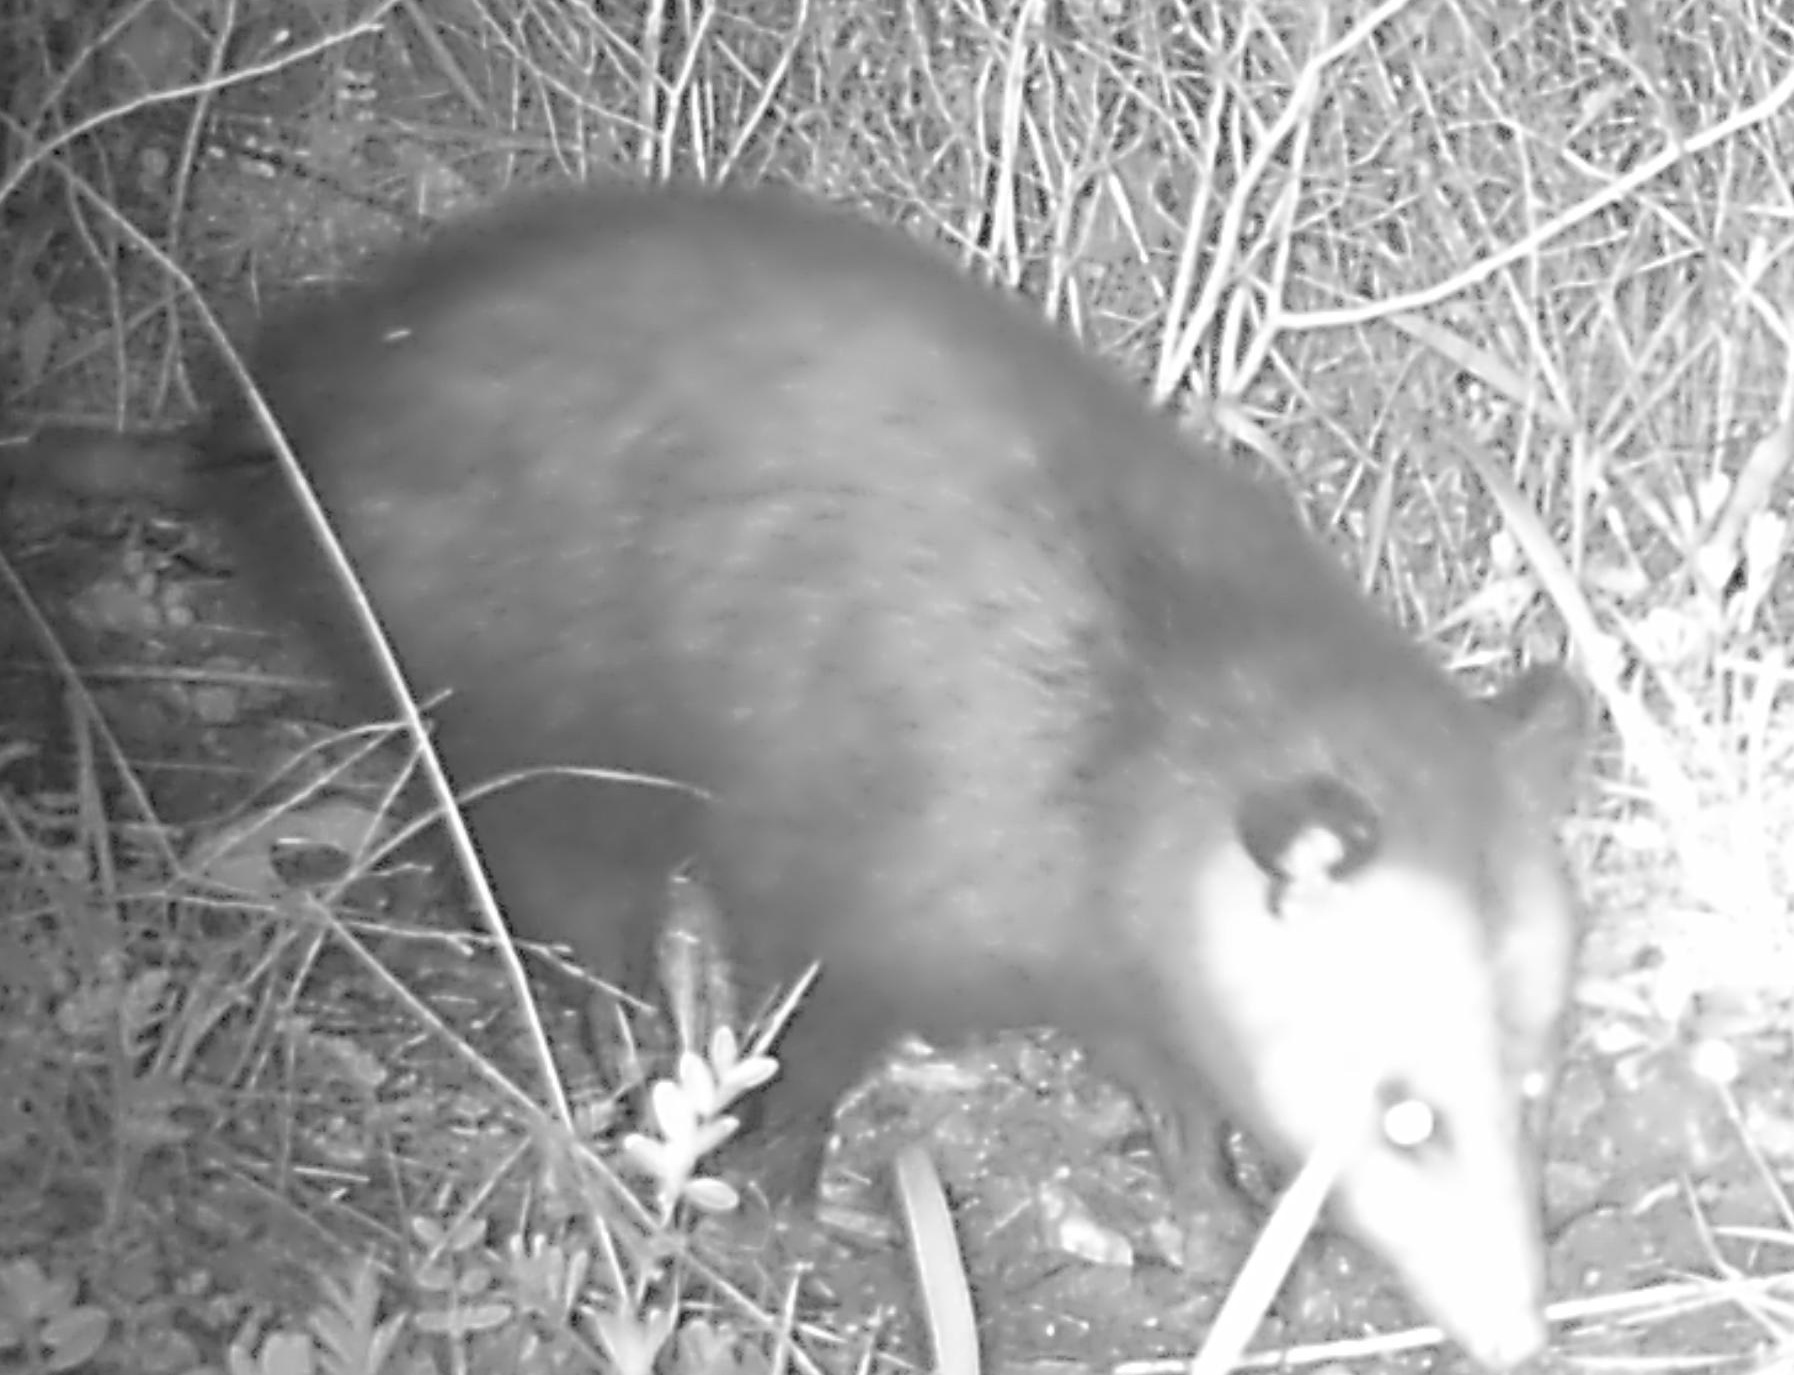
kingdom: Animalia
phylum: Chordata
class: Mammalia
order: Didelphimorphia
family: Didelphidae
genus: Didelphis
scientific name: Didelphis virginiana
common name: Virginia opossum
